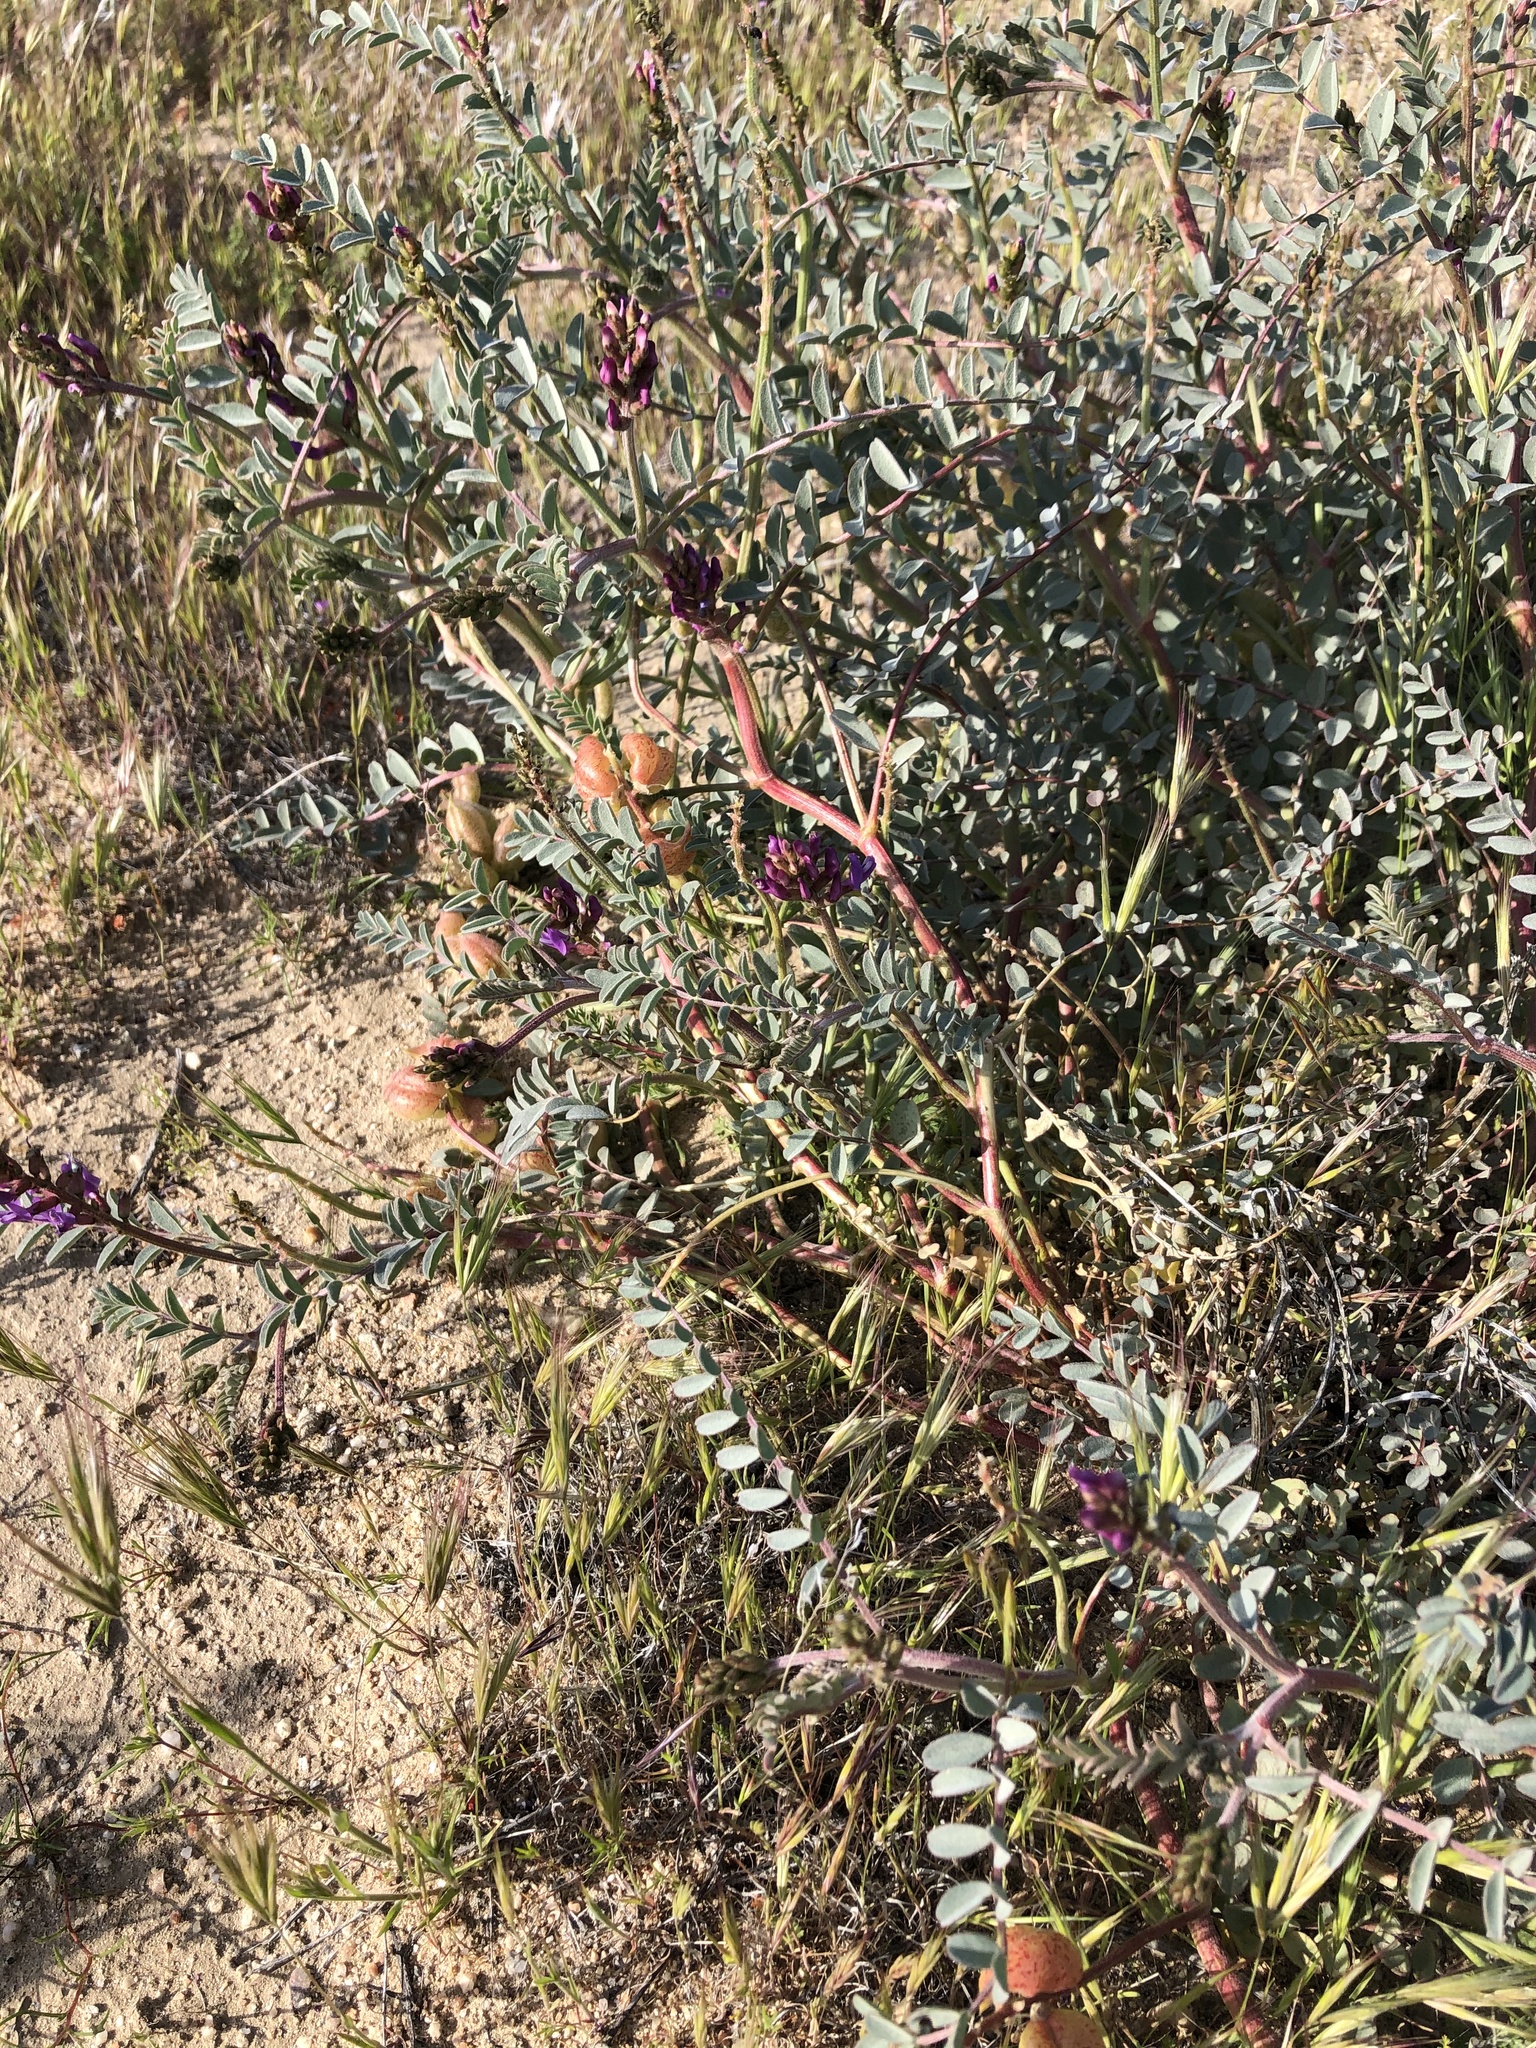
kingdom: Plantae
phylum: Tracheophyta
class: Magnoliopsida
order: Fabales
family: Fabaceae
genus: Astragalus
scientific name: Astragalus lentiginosus
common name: Freckled milkvetch
